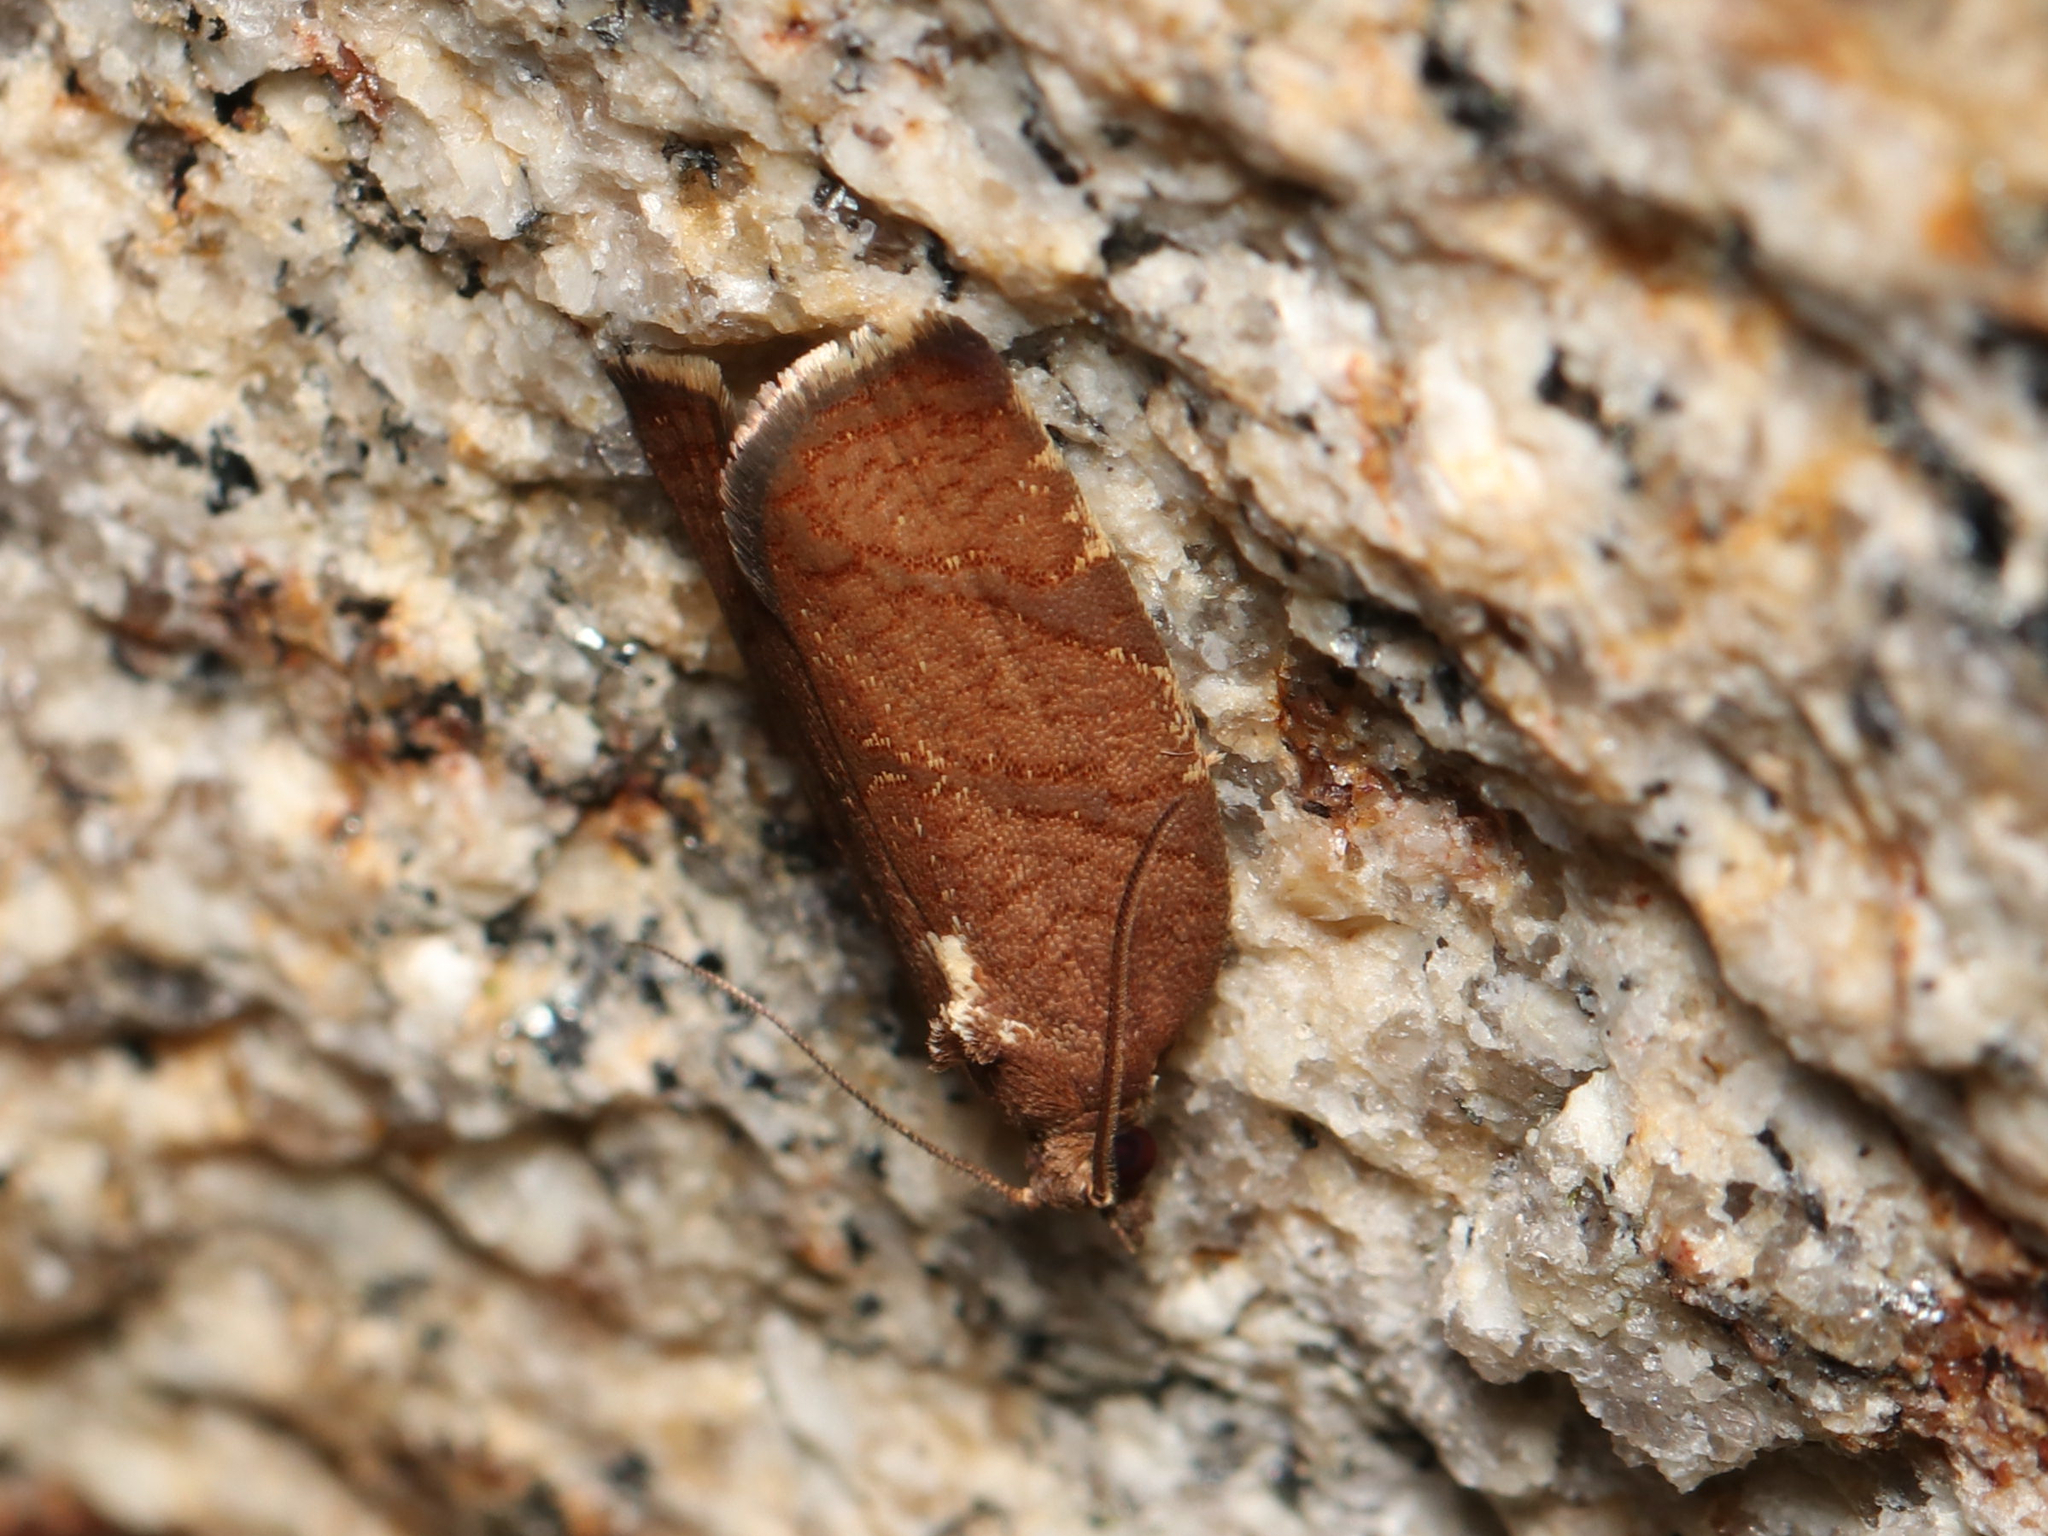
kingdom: Animalia
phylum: Arthropoda
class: Insecta
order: Lepidoptera
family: Tortricidae
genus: Argyrotaenia
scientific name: Argyrotaenia juglandana
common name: Hickory leafroller moth
